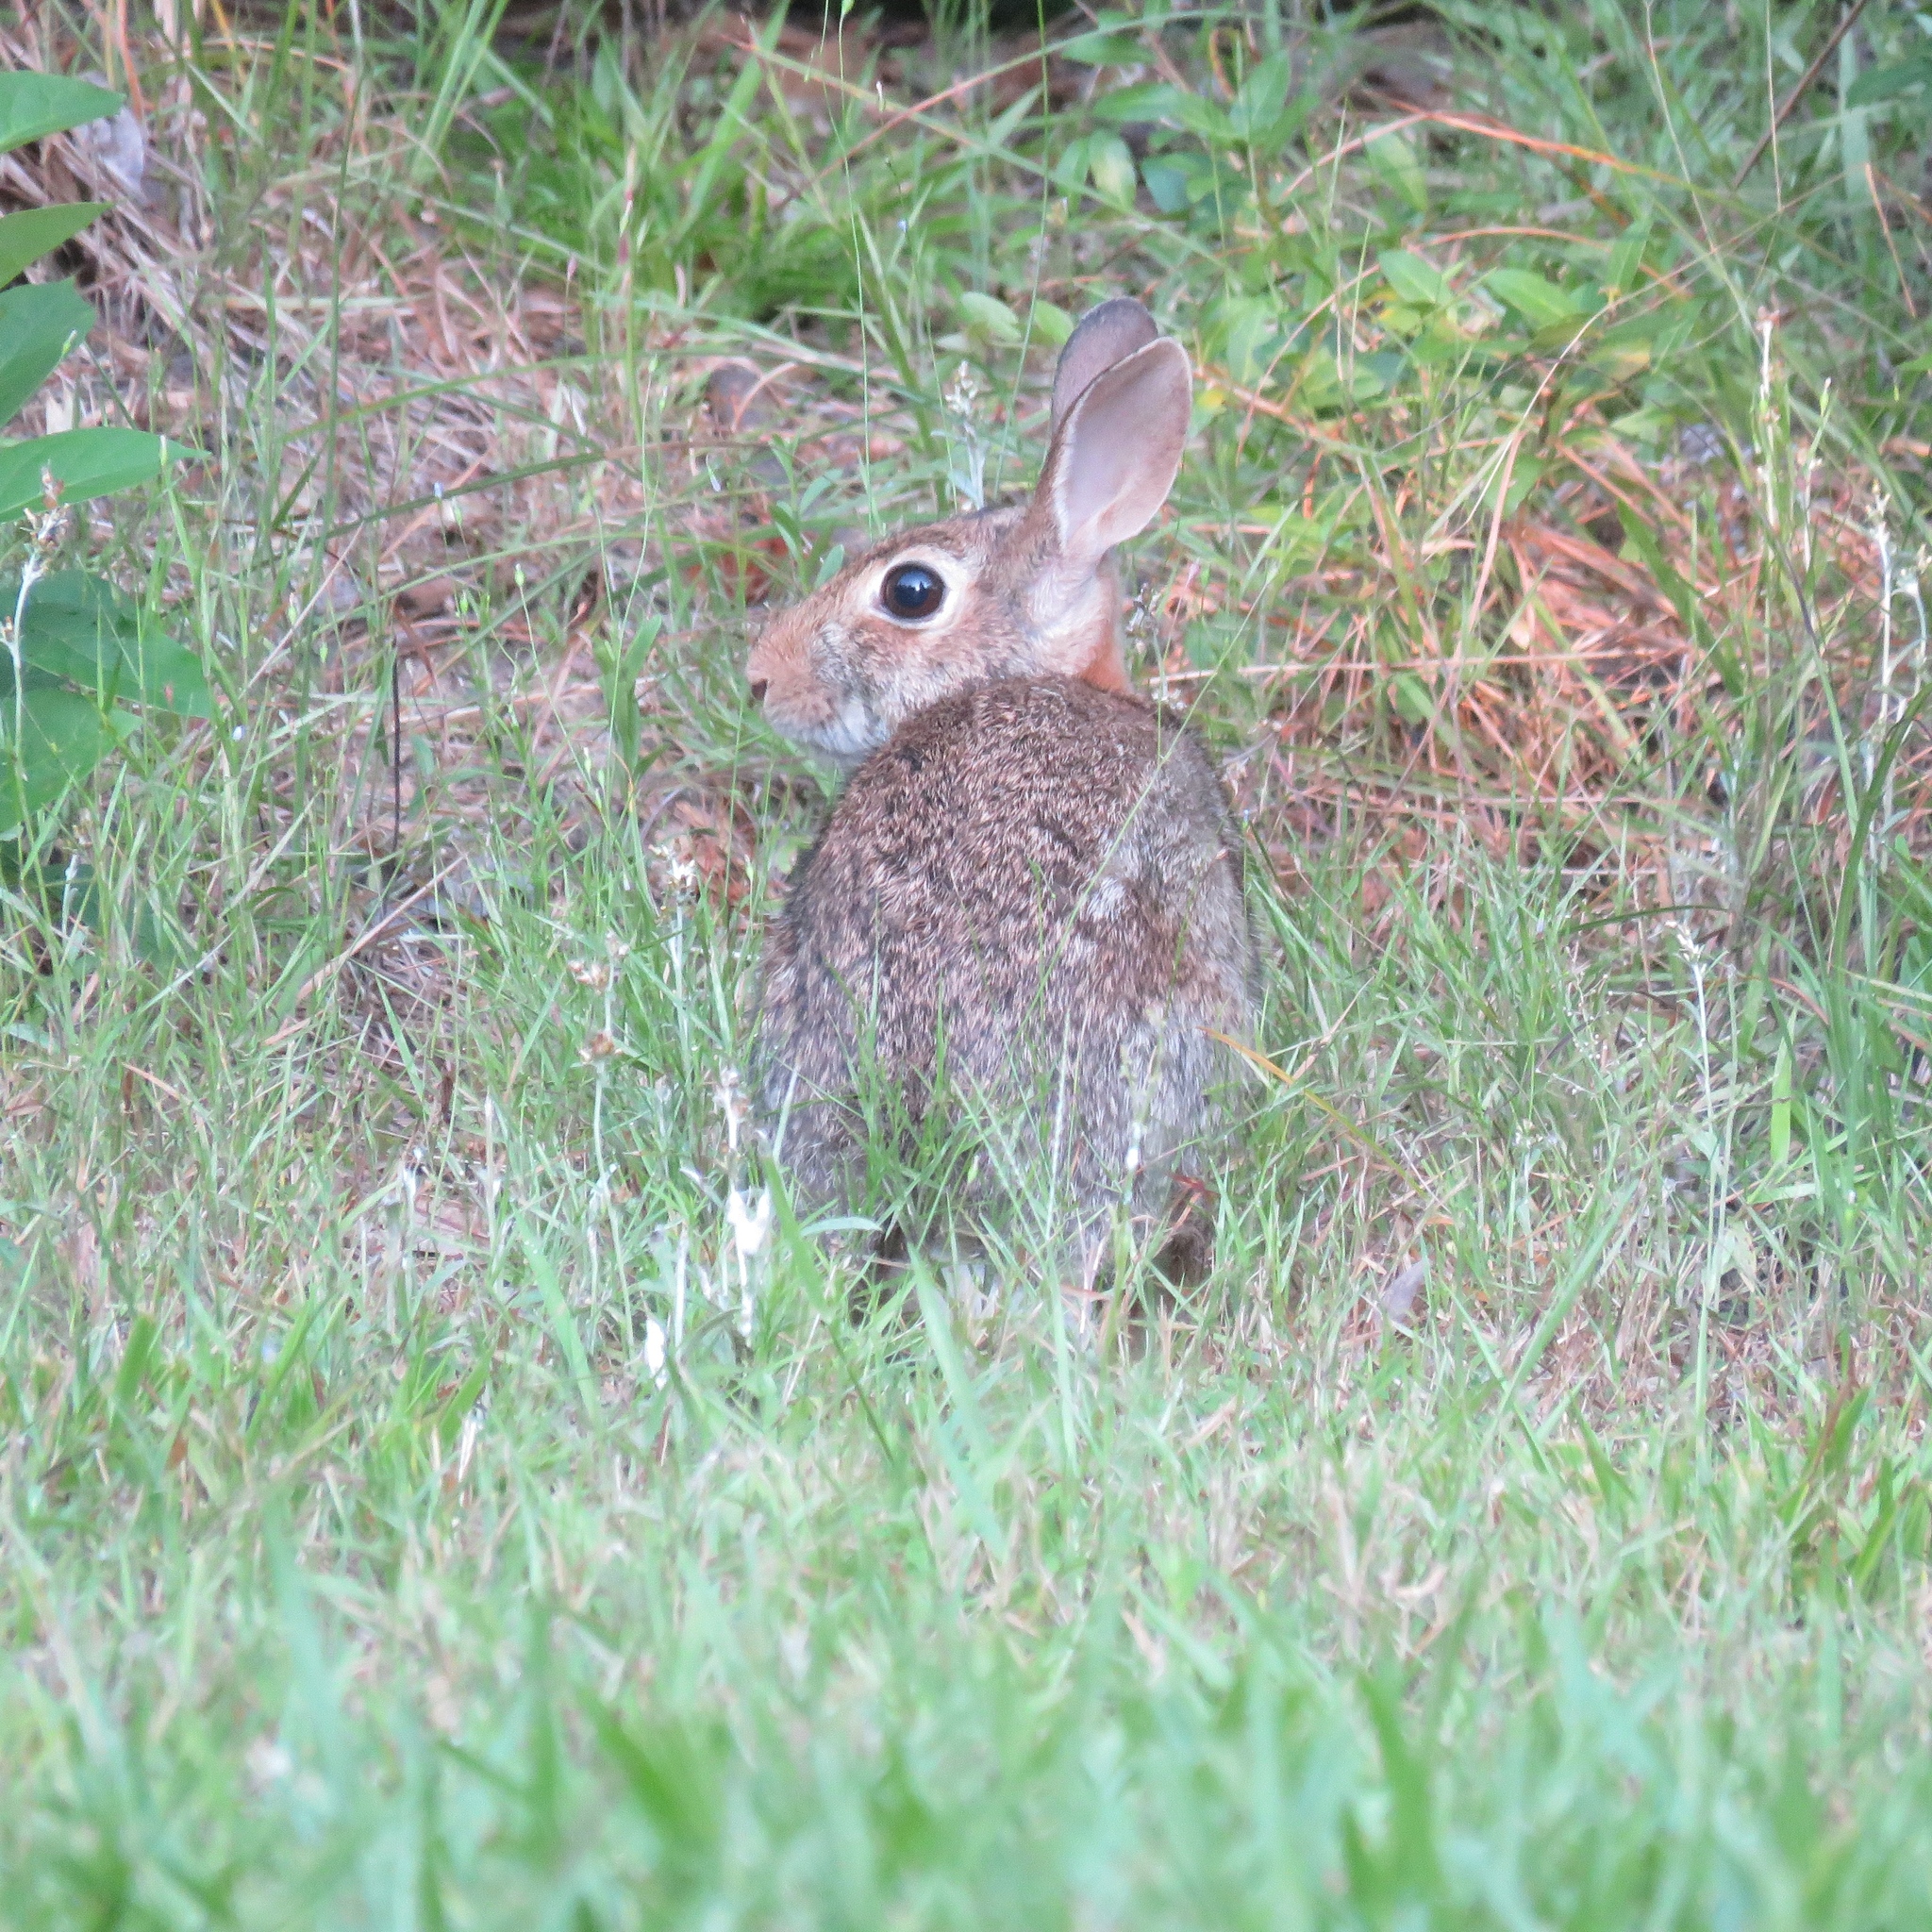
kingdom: Animalia
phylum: Chordata
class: Mammalia
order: Lagomorpha
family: Leporidae
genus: Sylvilagus
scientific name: Sylvilagus floridanus
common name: Eastern cottontail
